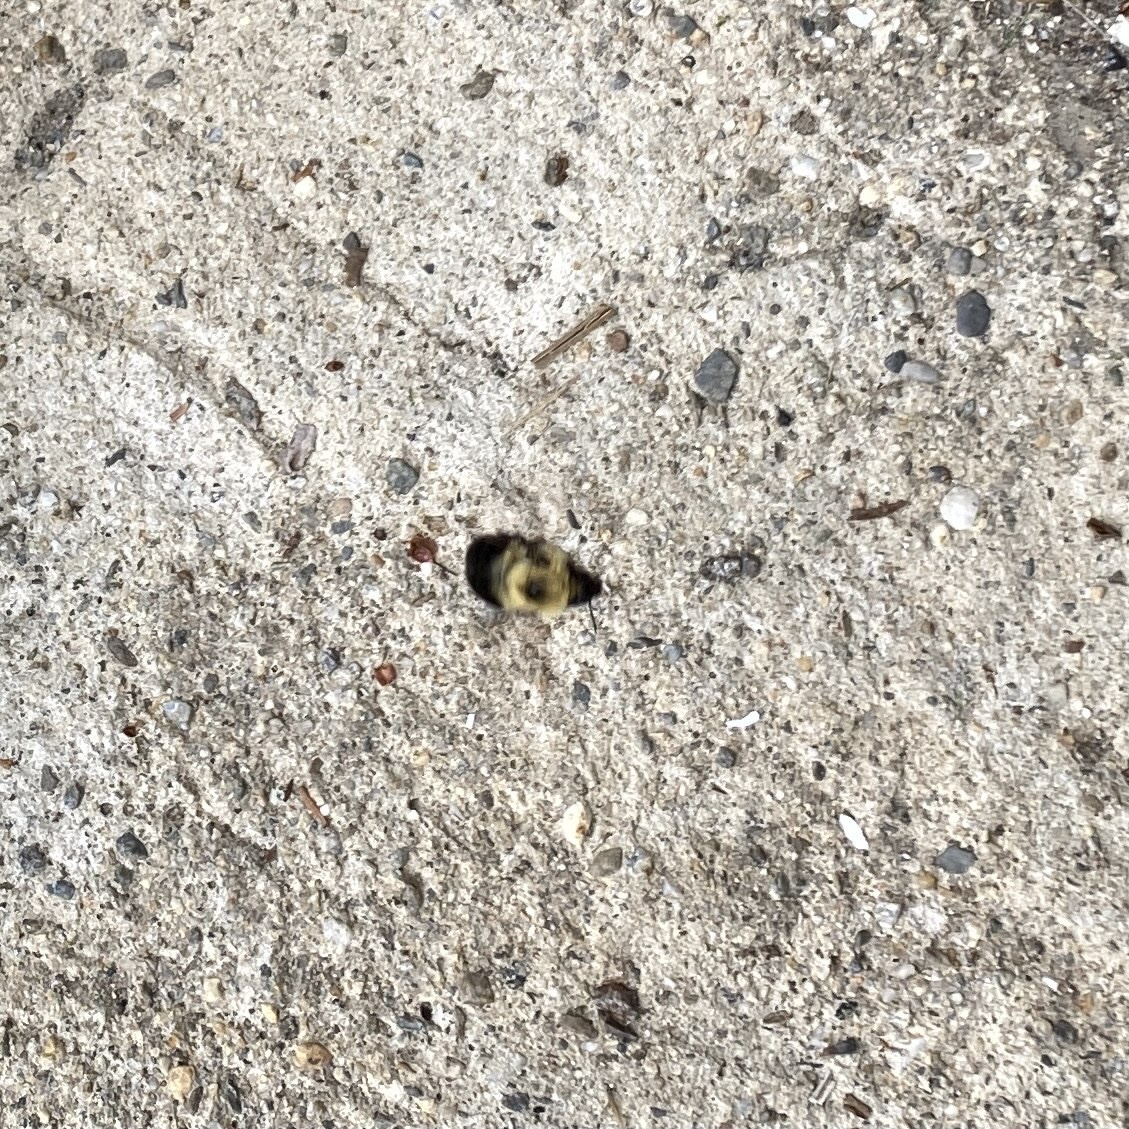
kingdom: Animalia
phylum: Arthropoda
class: Insecta
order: Hymenoptera
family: Apidae
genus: Bombus
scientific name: Bombus bimaculatus
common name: Two-spotted bumble bee
